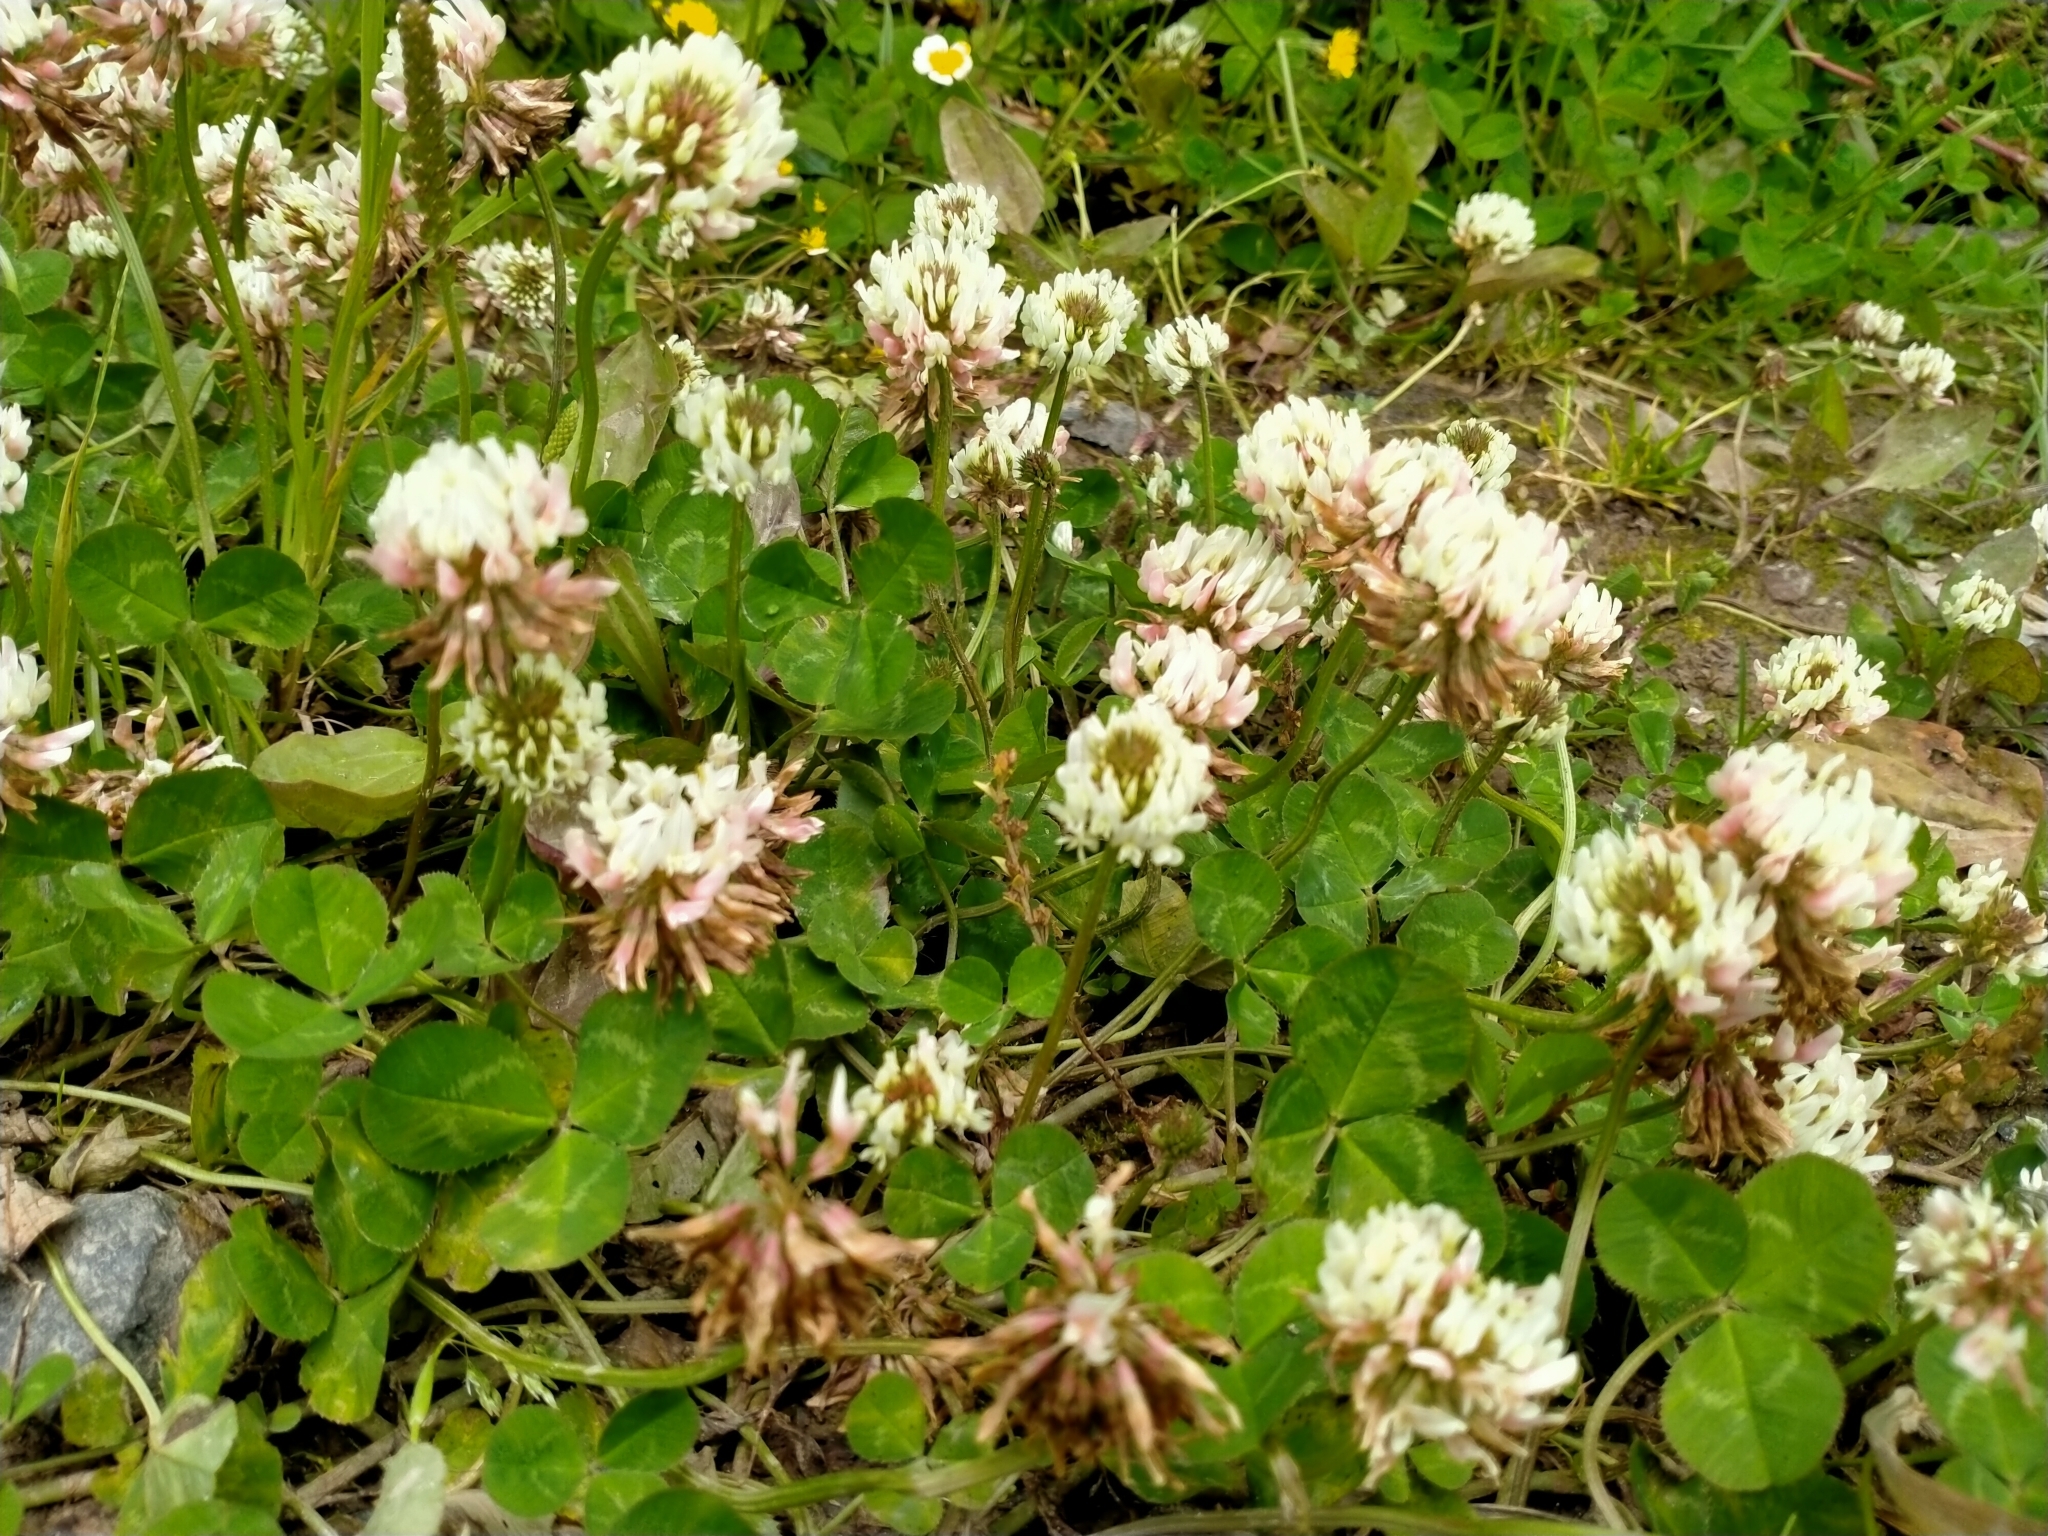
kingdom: Plantae
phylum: Tracheophyta
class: Magnoliopsida
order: Fabales
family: Fabaceae
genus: Trifolium
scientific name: Trifolium repens
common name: White clover
